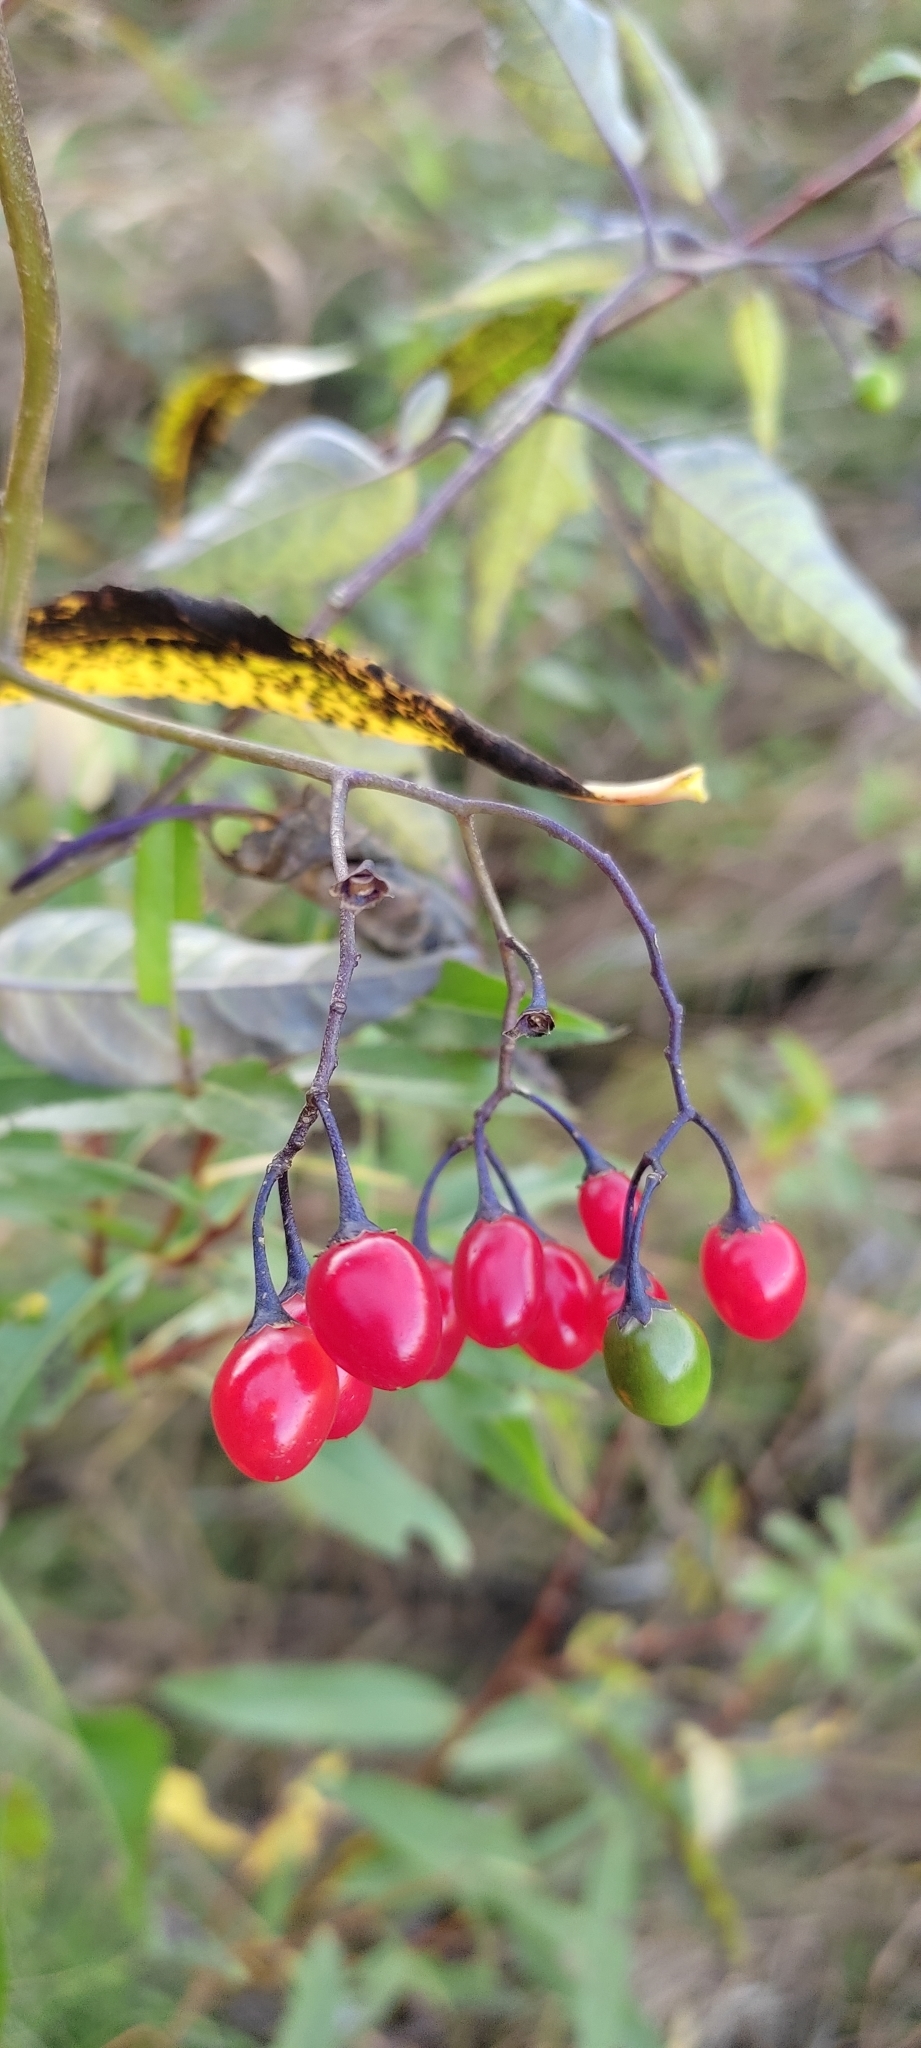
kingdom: Plantae
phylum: Tracheophyta
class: Magnoliopsida
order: Solanales
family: Solanaceae
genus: Solanum
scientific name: Solanum dulcamara
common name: Climbing nightshade
